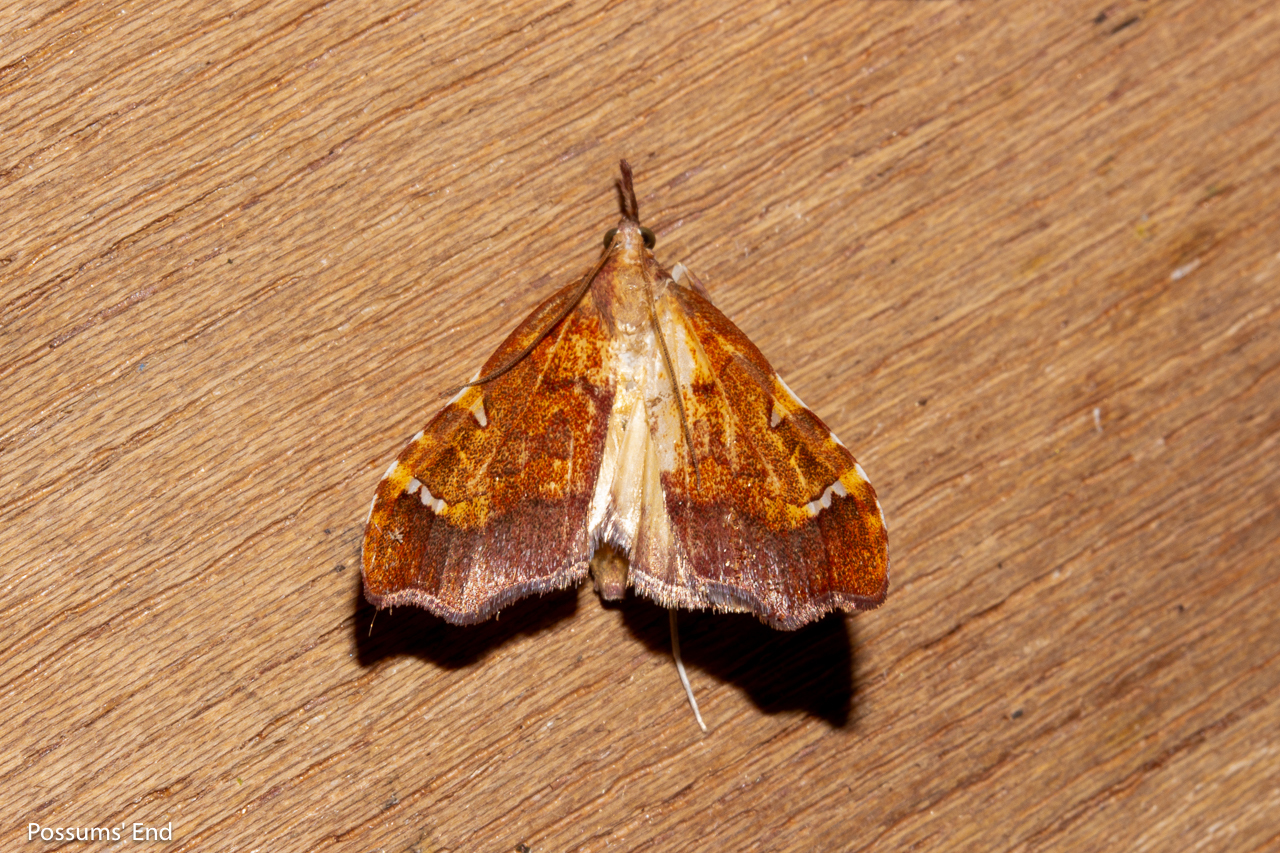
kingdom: Animalia
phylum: Arthropoda
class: Insecta
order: Lepidoptera
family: Crambidae
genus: Deana
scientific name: Deana hybreasalis
